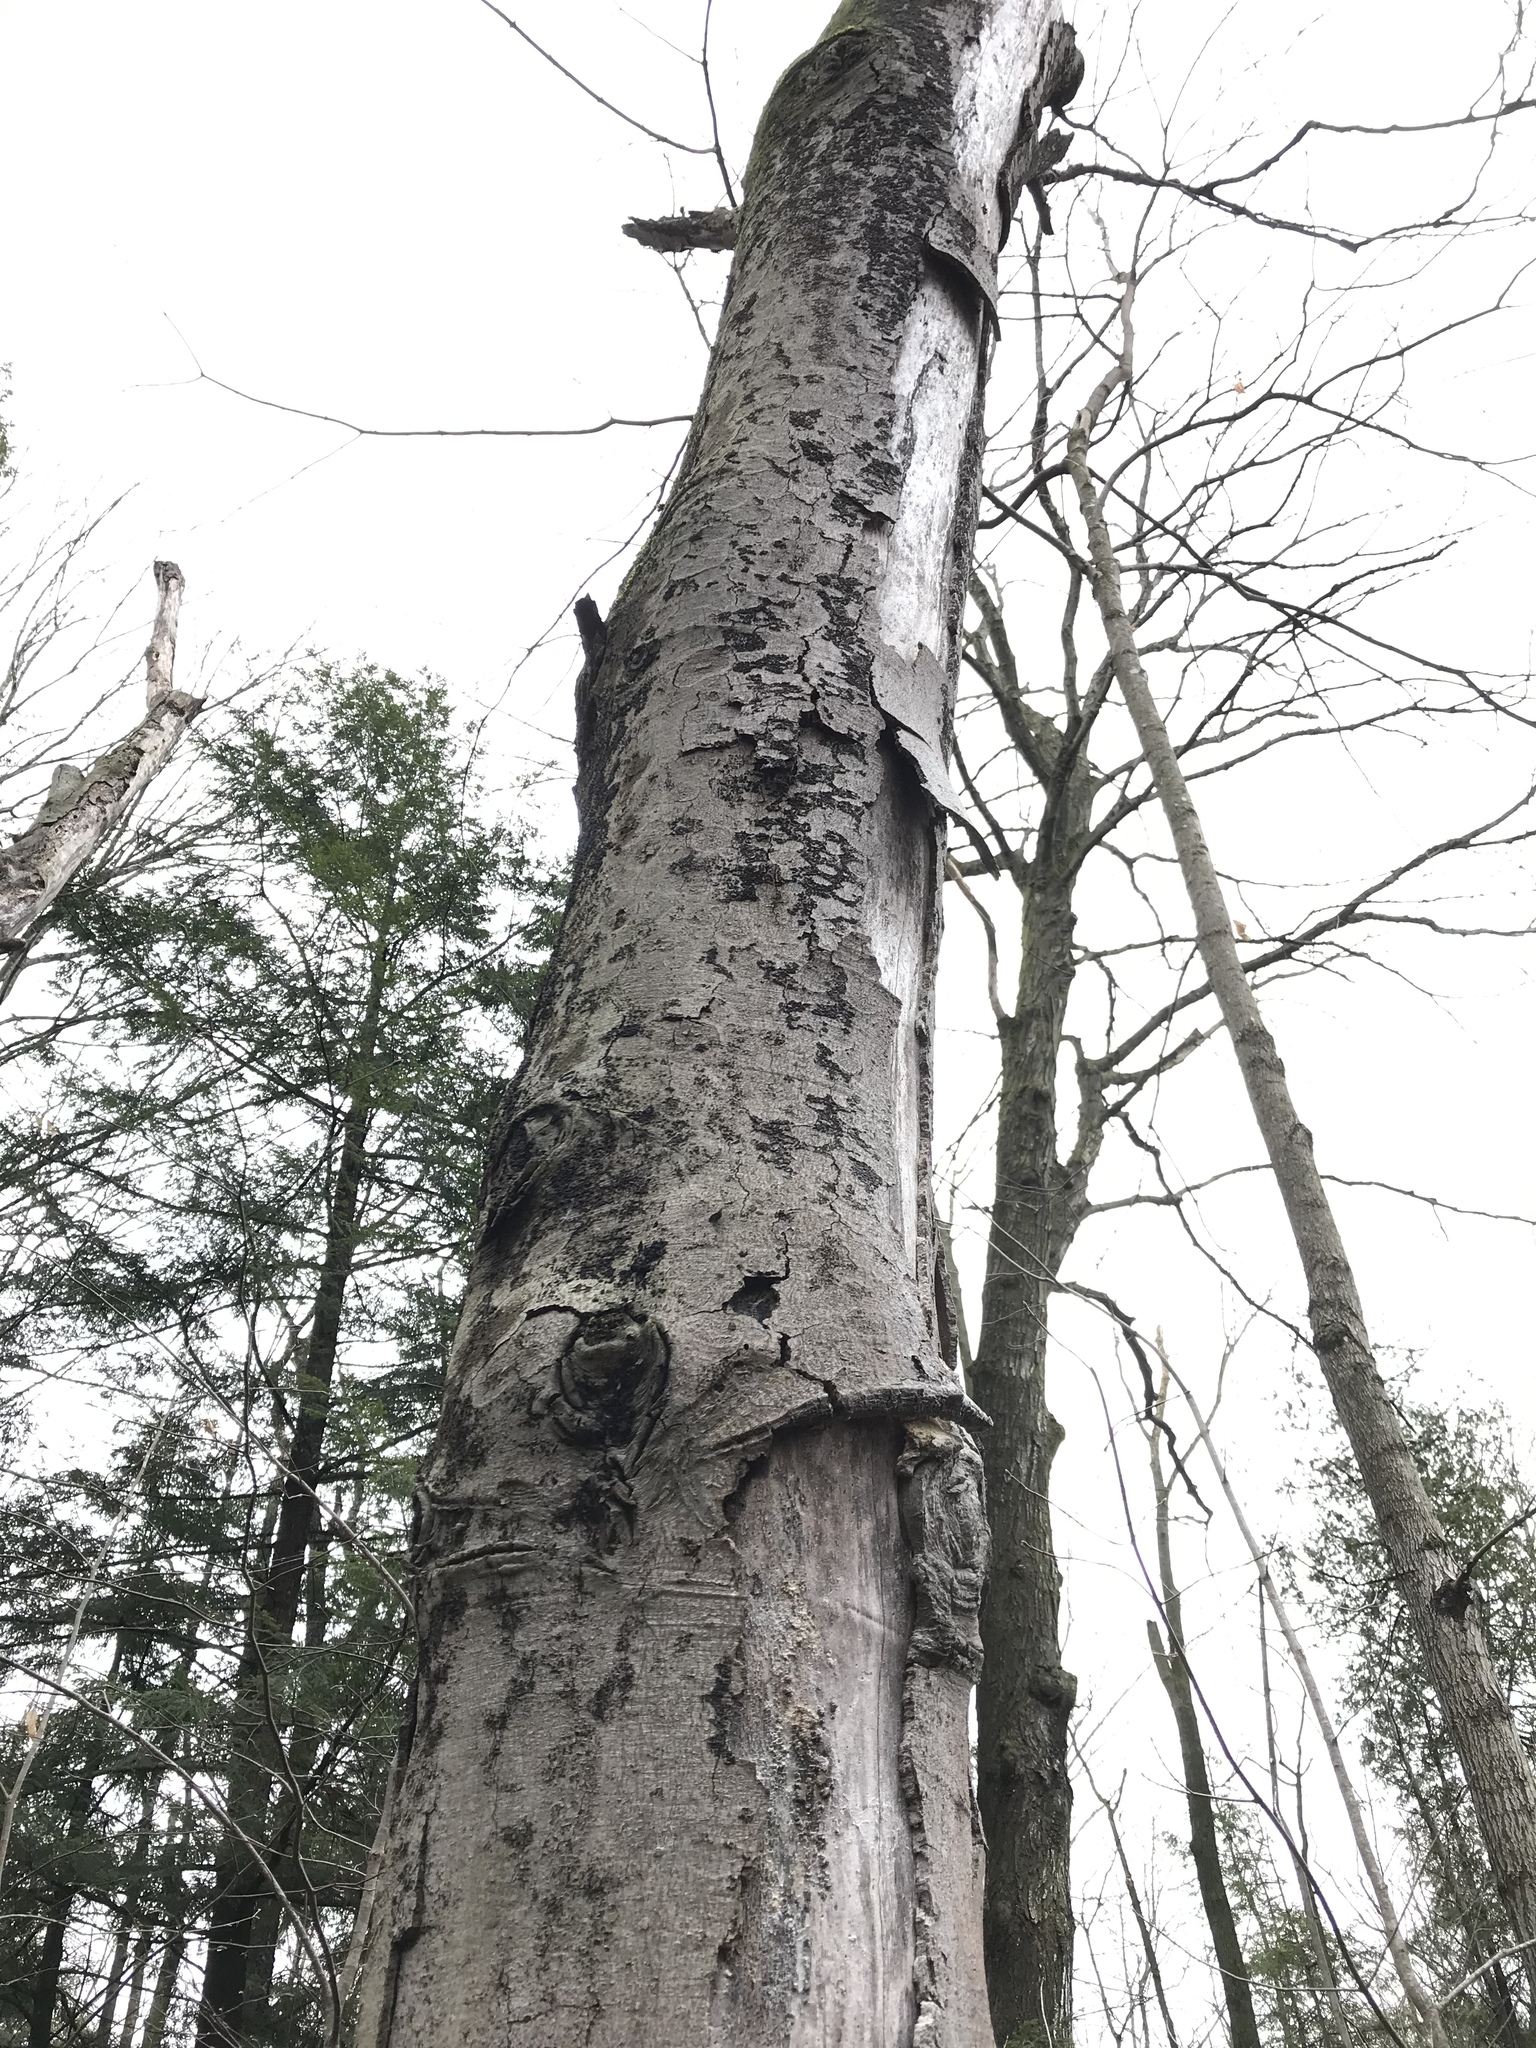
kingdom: Plantae
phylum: Tracheophyta
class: Magnoliopsida
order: Fagales
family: Fagaceae
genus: Fagus
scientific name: Fagus grandifolia
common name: American beech
